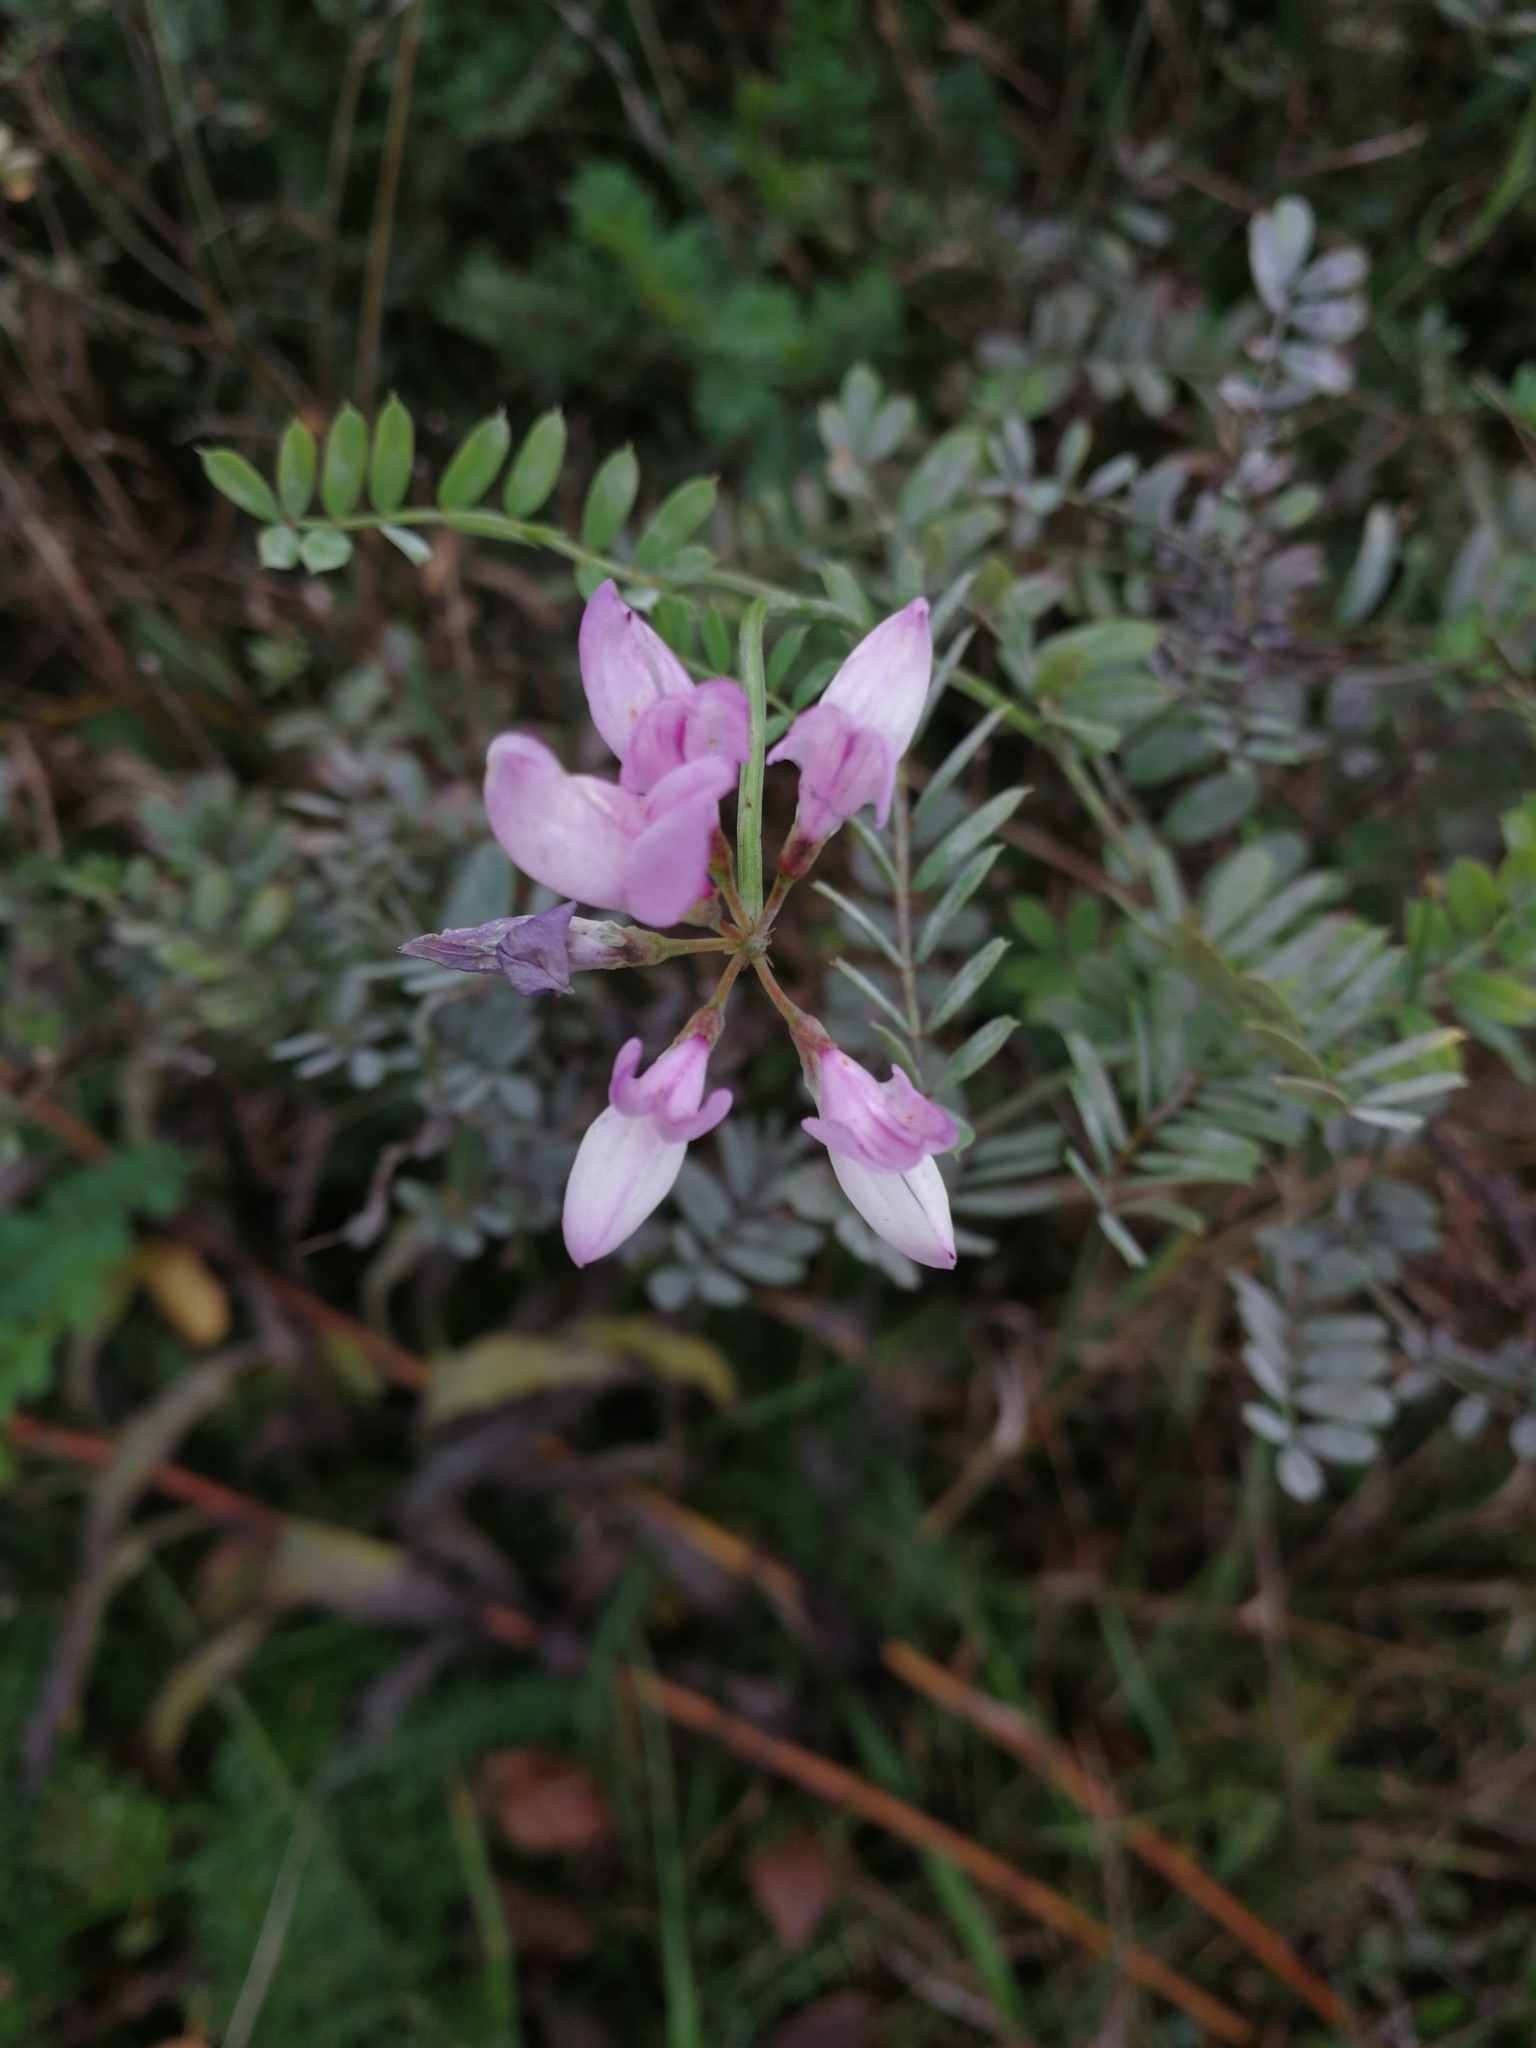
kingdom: Plantae
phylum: Tracheophyta
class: Magnoliopsida
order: Fabales
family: Fabaceae
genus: Coronilla
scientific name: Coronilla varia
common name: Crownvetch
